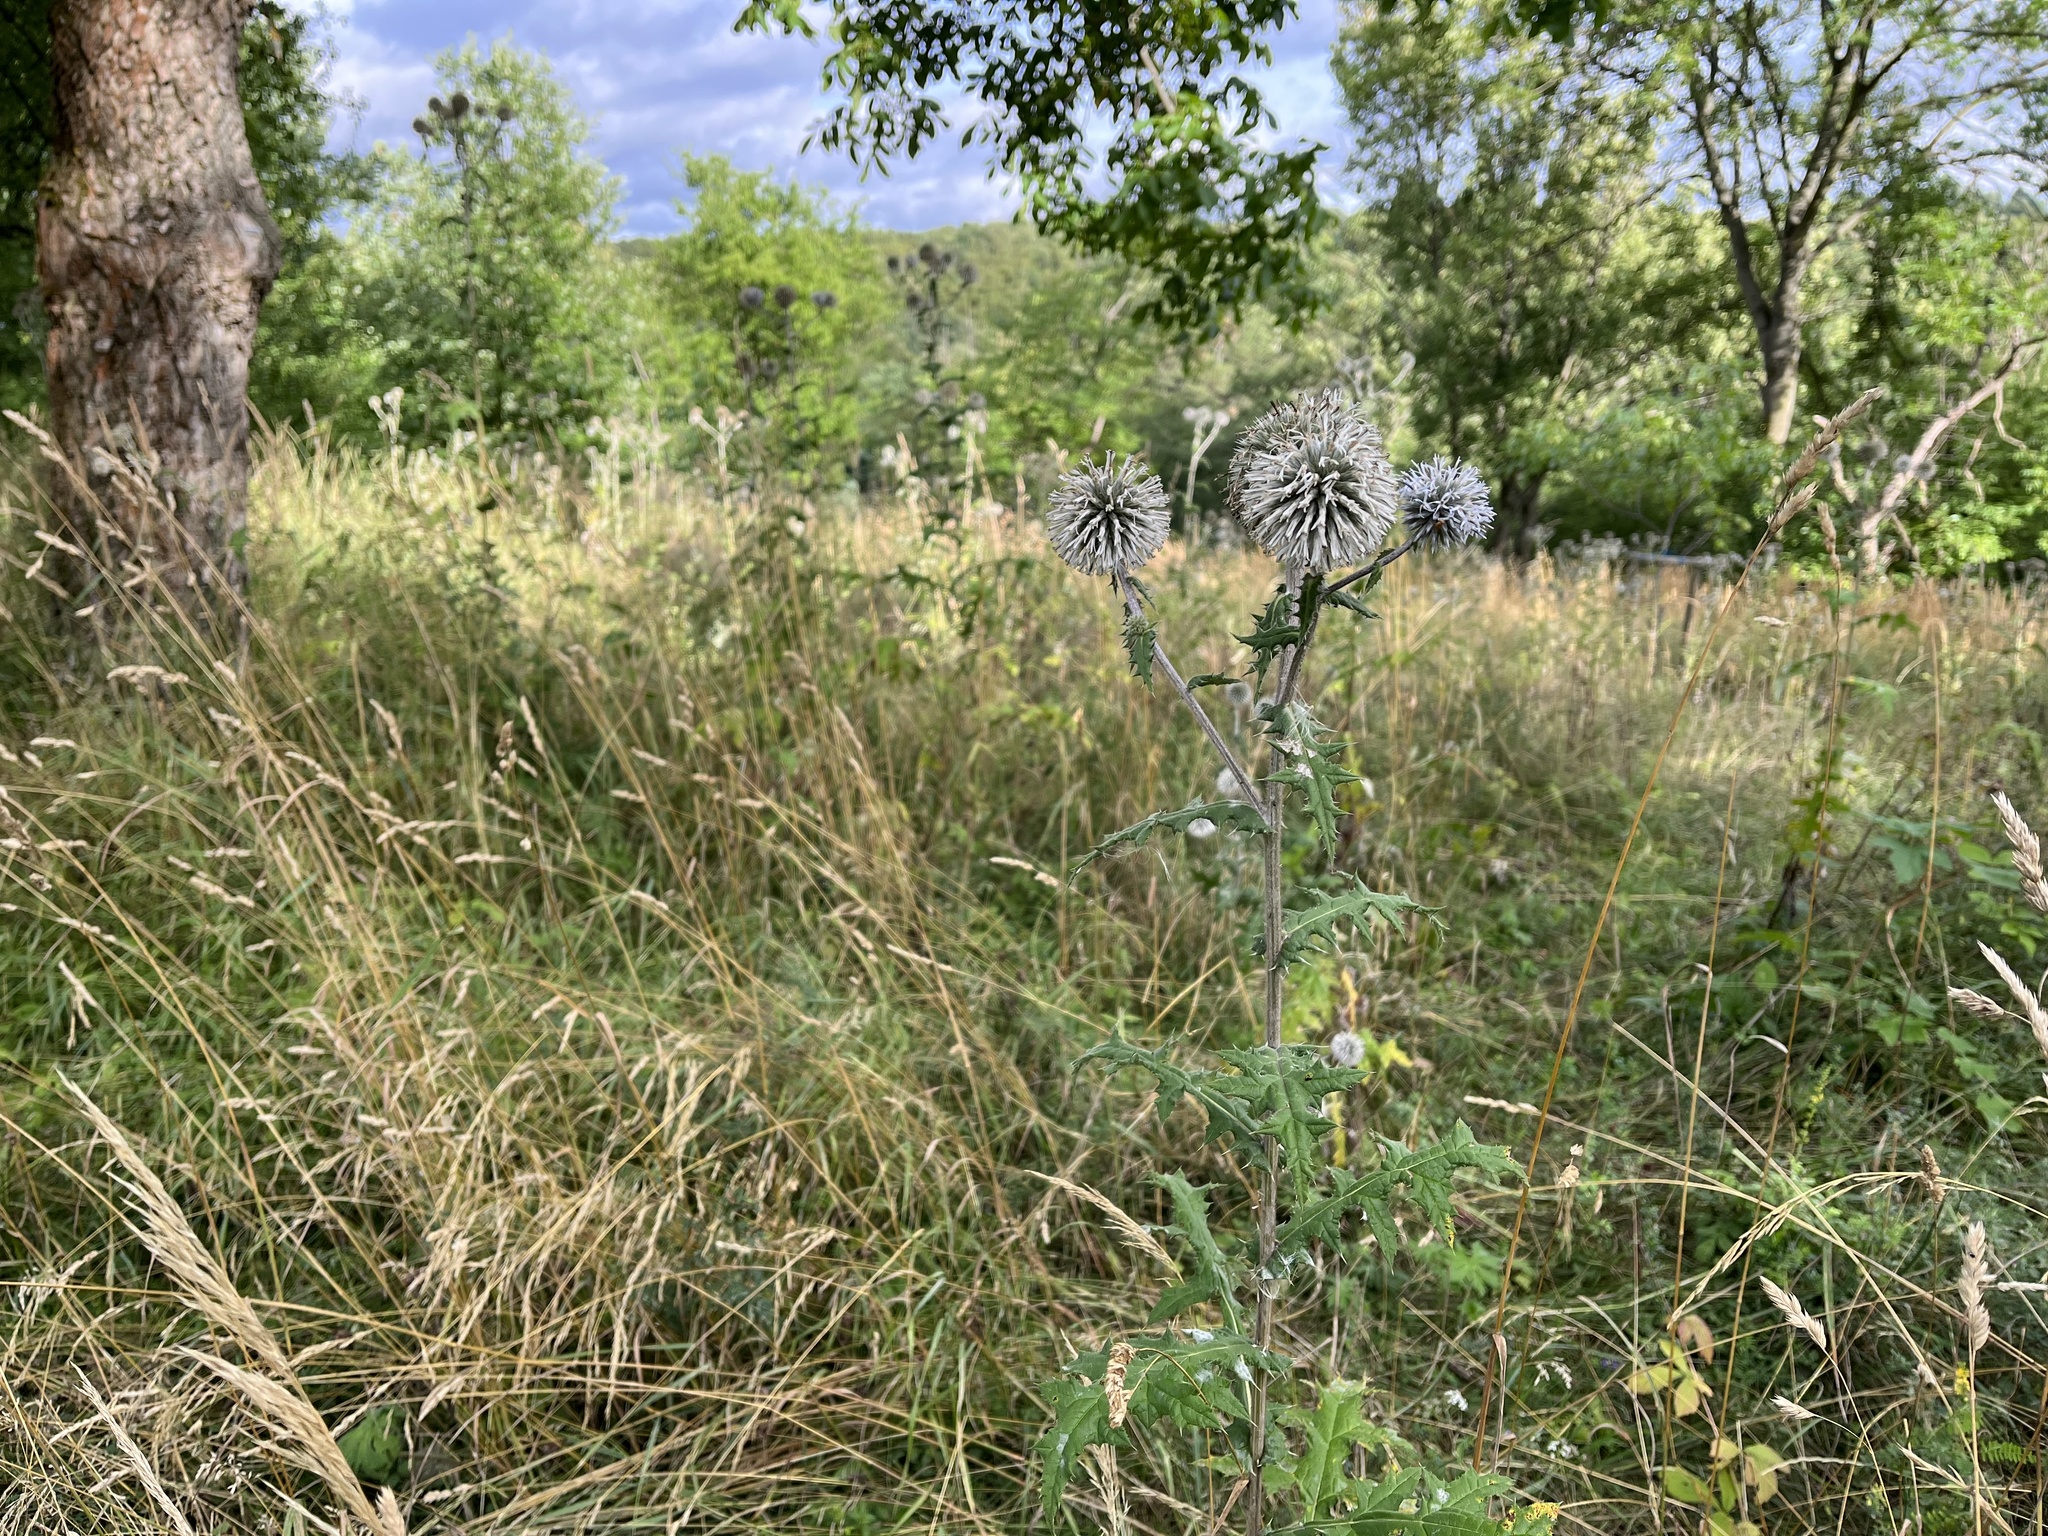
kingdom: Plantae
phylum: Tracheophyta
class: Magnoliopsida
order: Asterales
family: Asteraceae
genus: Echinops
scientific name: Echinops sphaerocephalus
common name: Glandular globe-thistle
